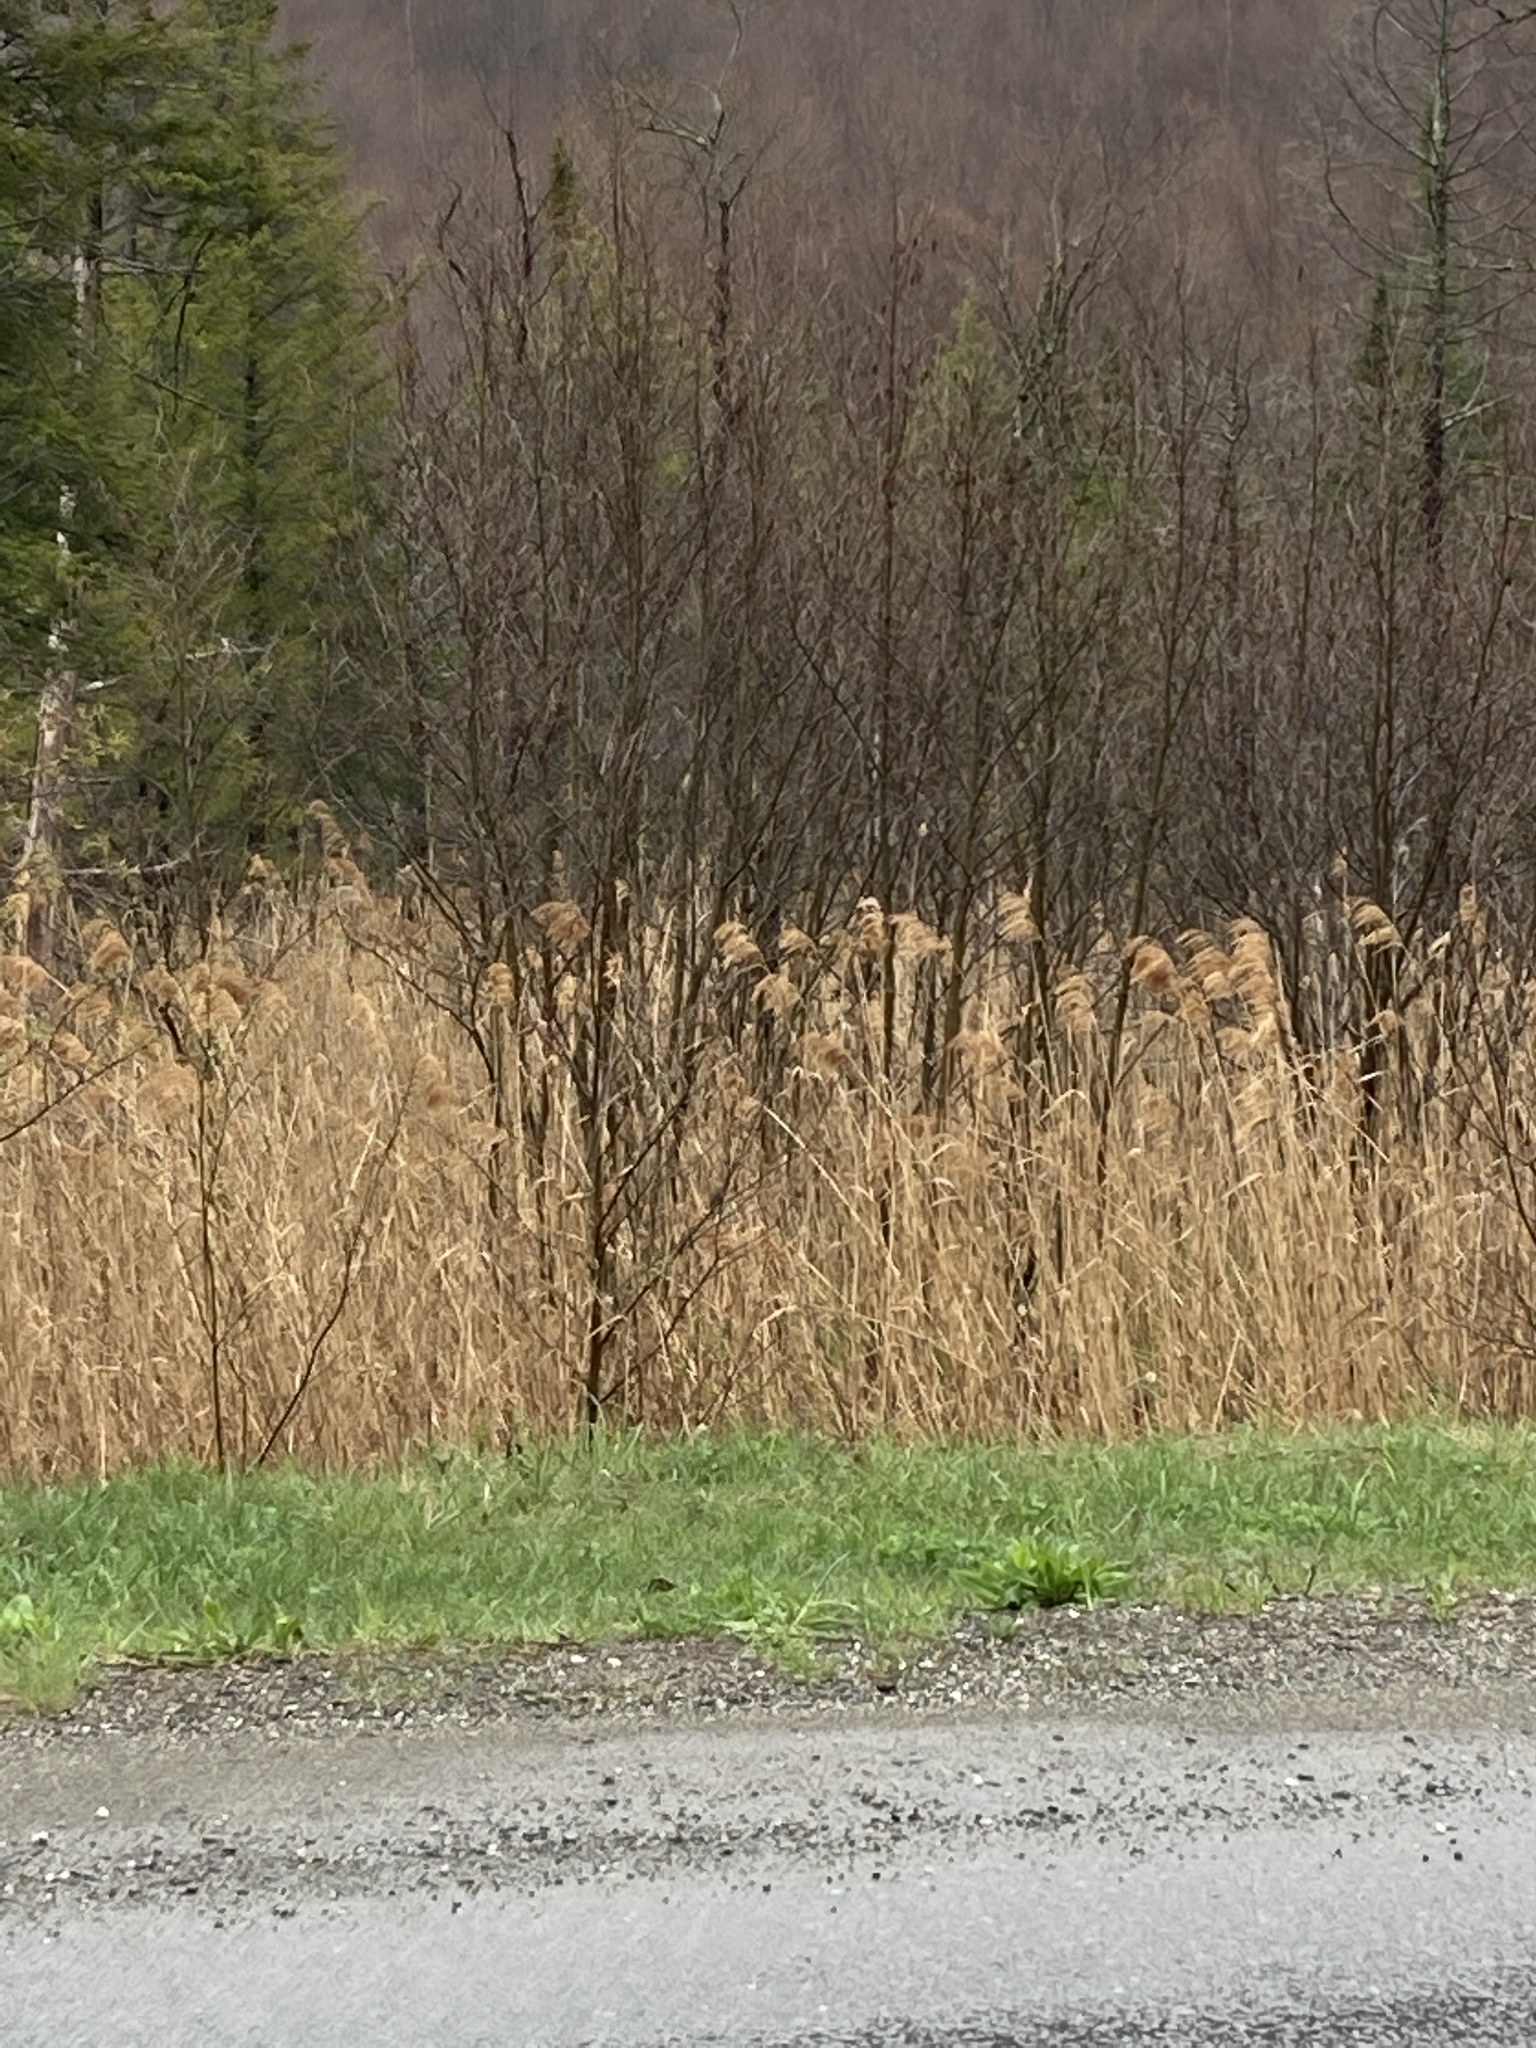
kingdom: Plantae
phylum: Tracheophyta
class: Liliopsida
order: Poales
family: Poaceae
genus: Phragmites
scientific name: Phragmites australis
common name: Common reed
